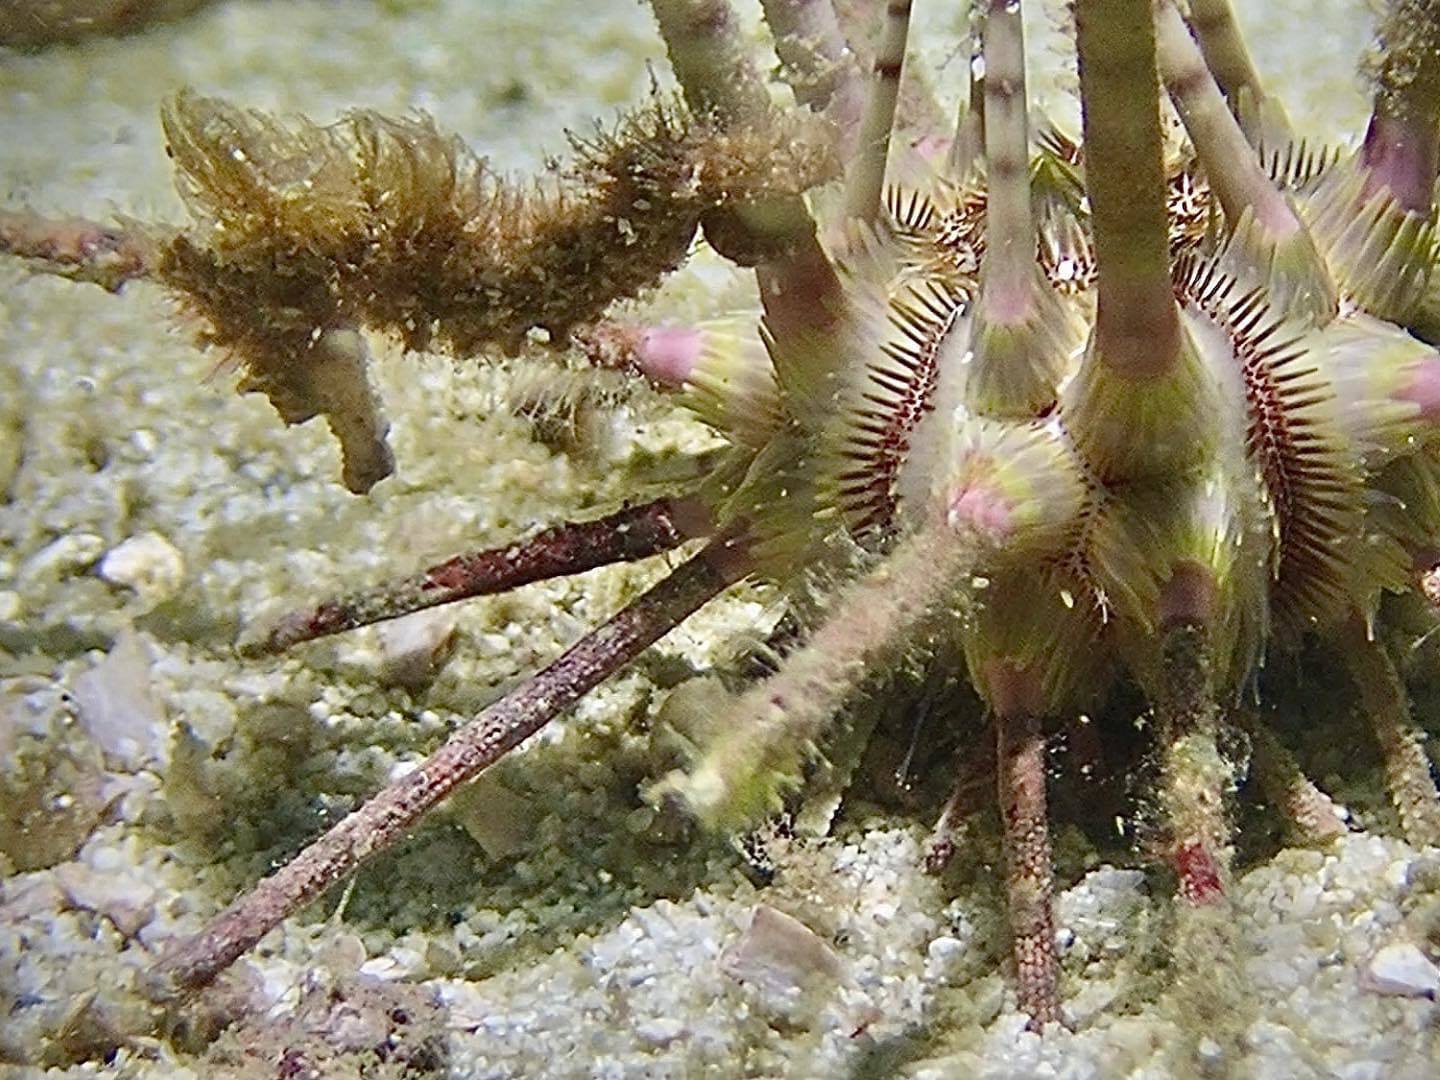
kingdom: Animalia
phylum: Chordata
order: Syngnathiformes
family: Syngnathidae
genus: Hippocampus
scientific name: Hippocampus spinosissimus
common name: Hedgehog seahorse
